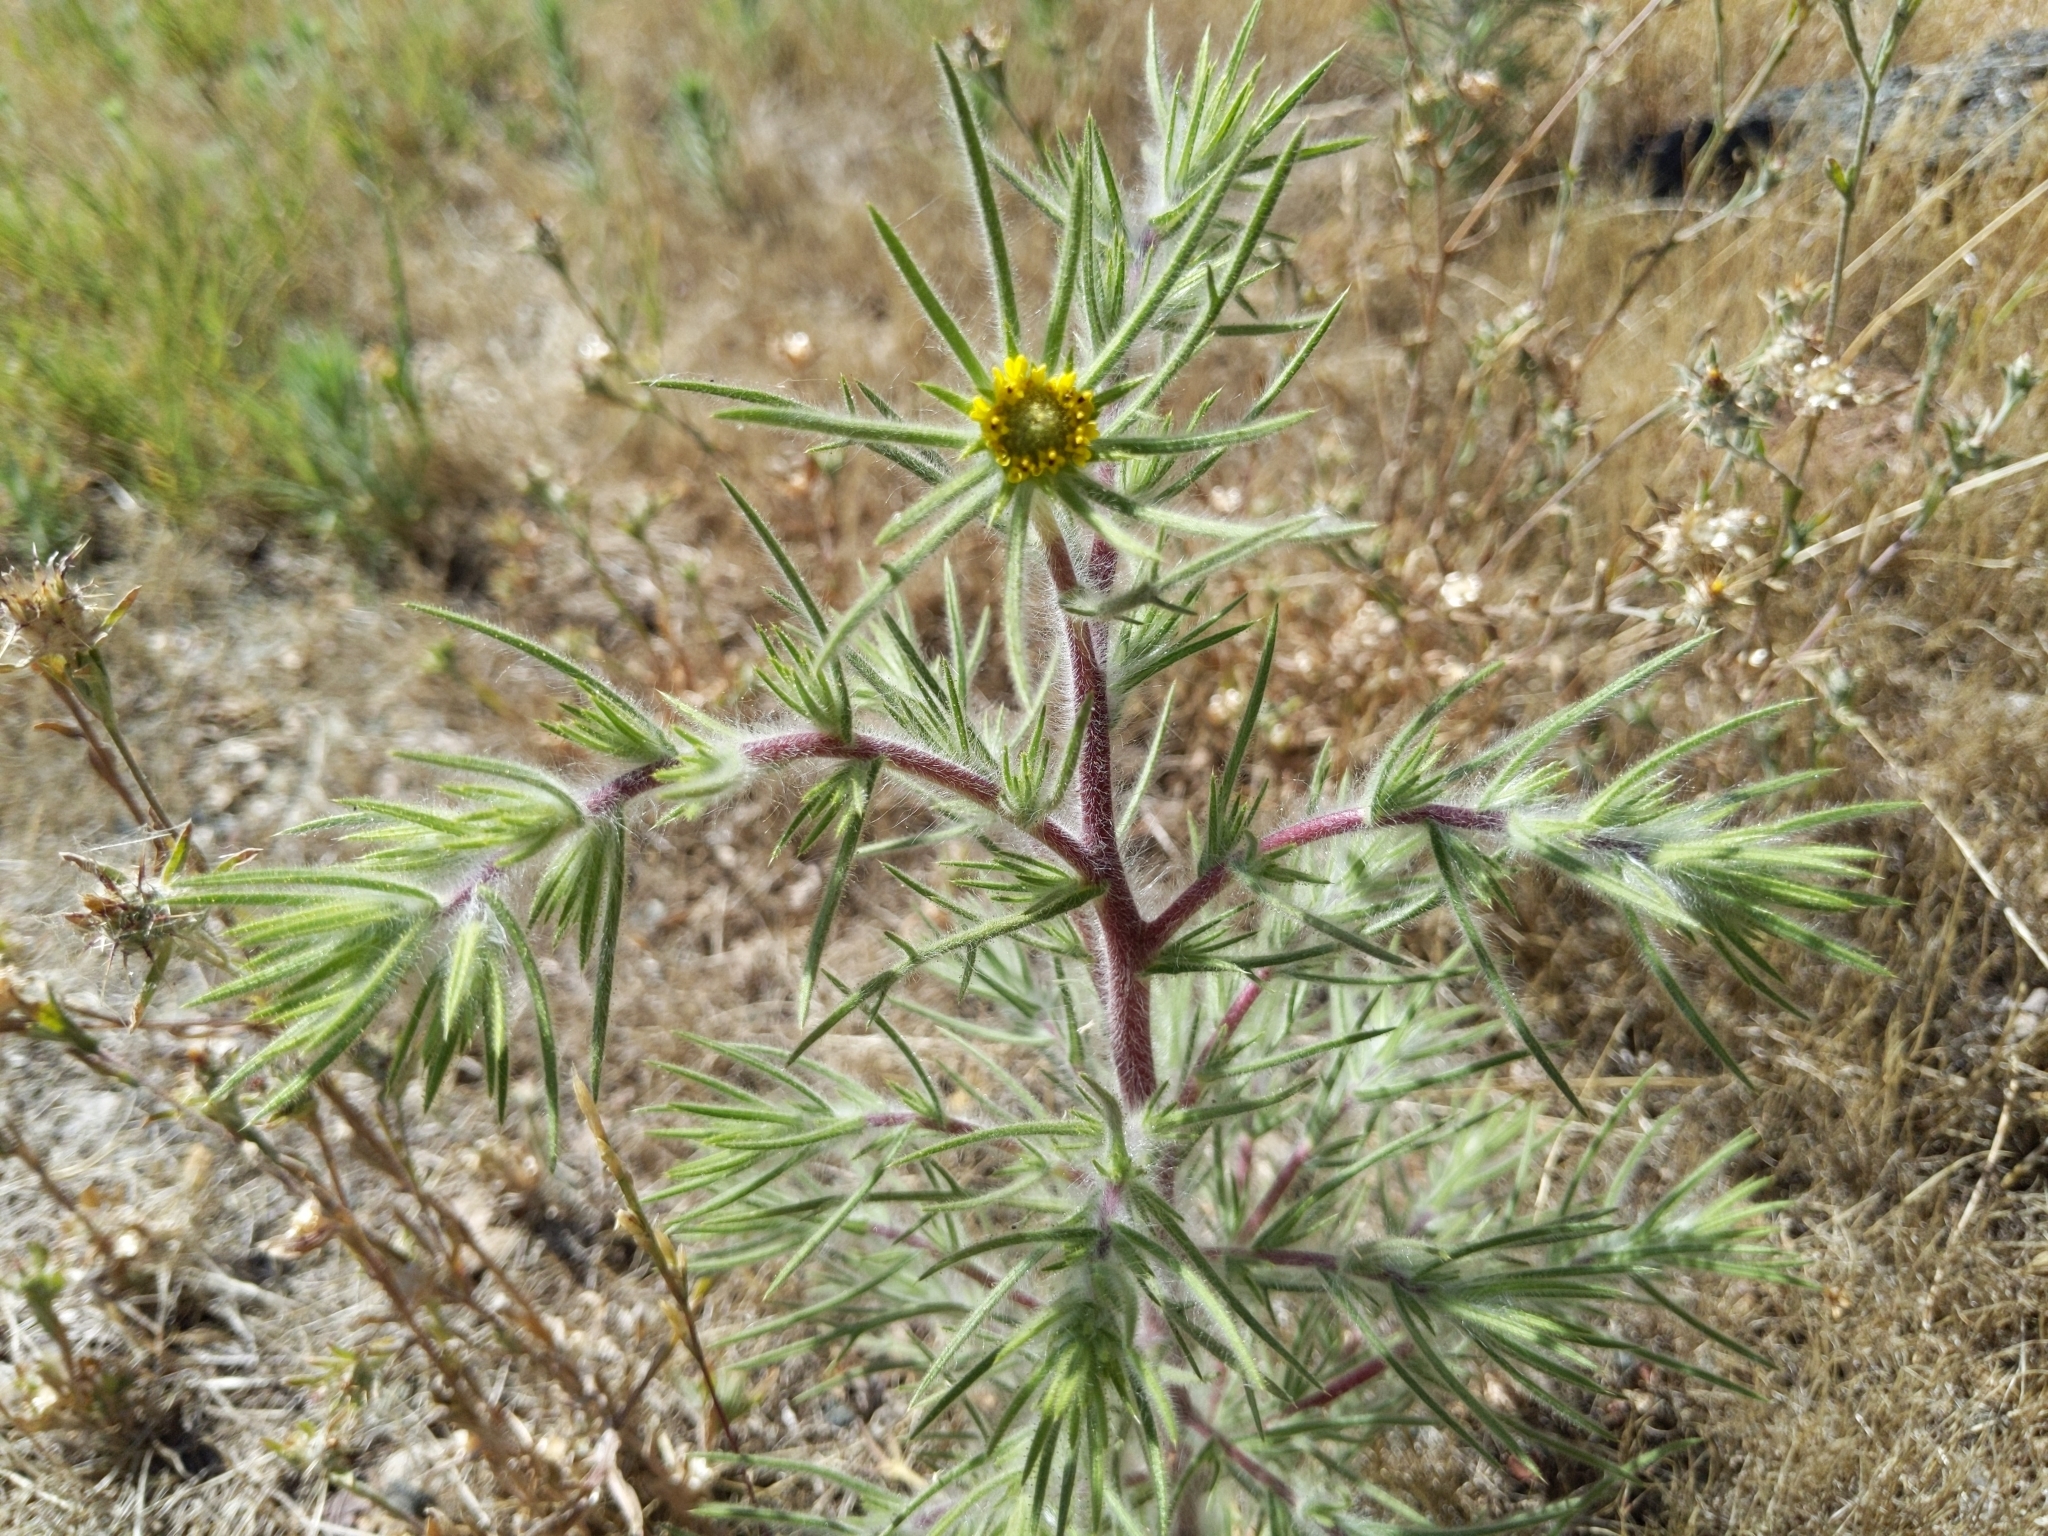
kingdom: Plantae
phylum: Tracheophyta
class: Magnoliopsida
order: Asterales
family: Asteraceae
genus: Centromadia
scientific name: Centromadia fitchii
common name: Fitch's spikeweed
